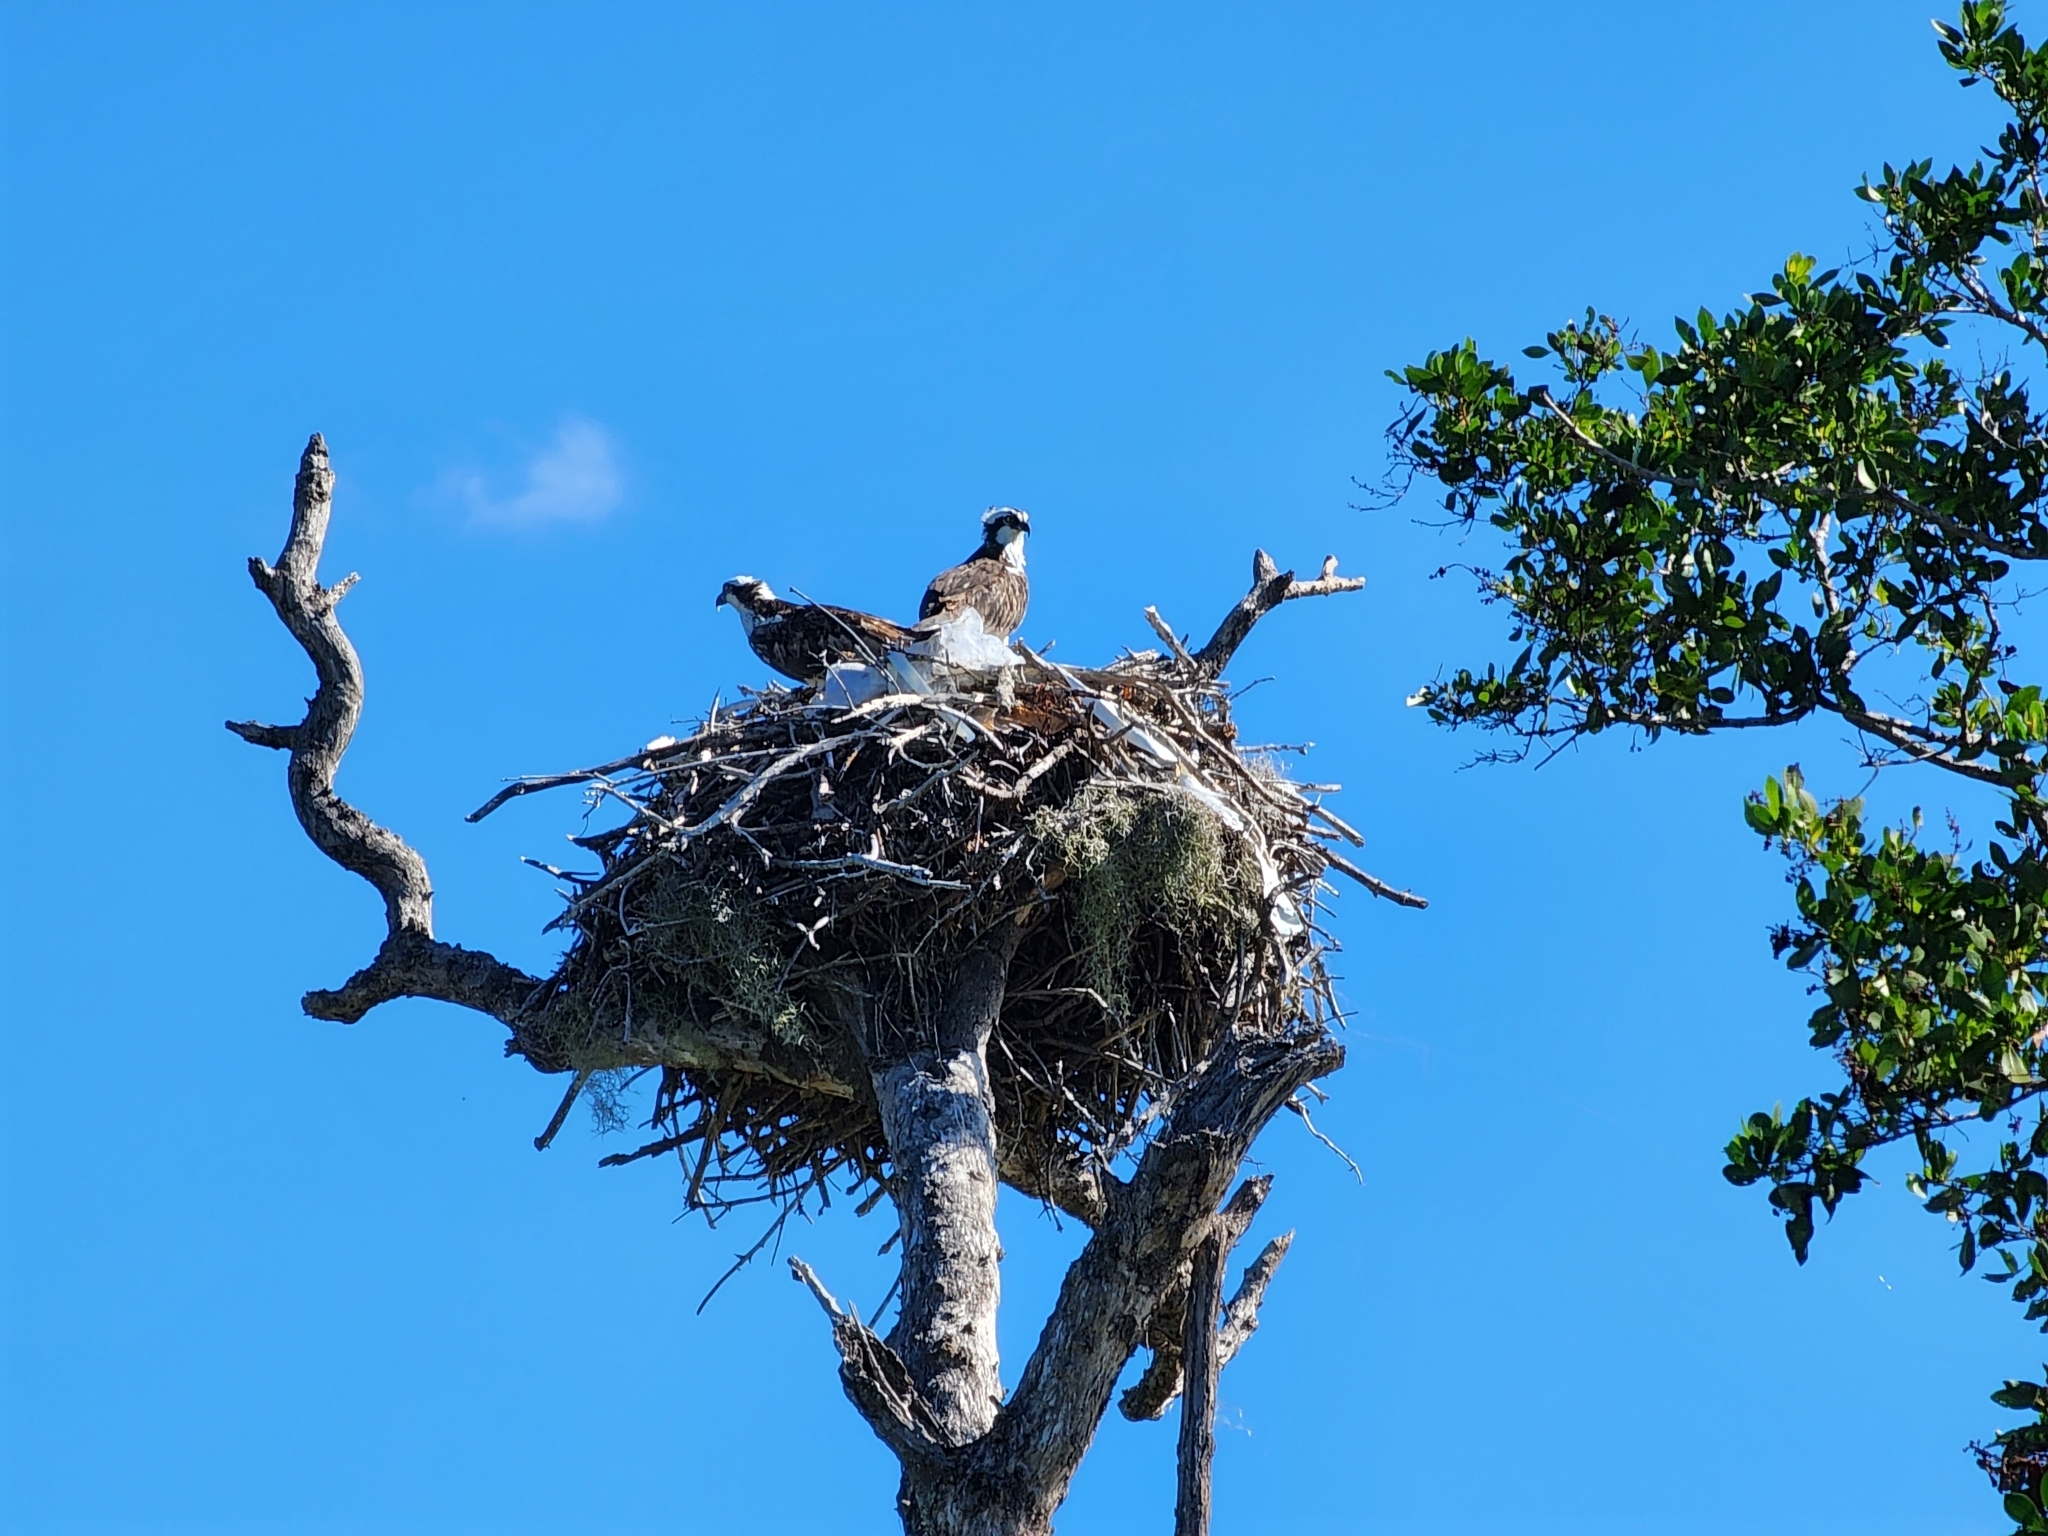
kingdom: Animalia
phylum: Chordata
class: Aves
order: Accipitriformes
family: Pandionidae
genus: Pandion
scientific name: Pandion haliaetus
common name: Osprey
